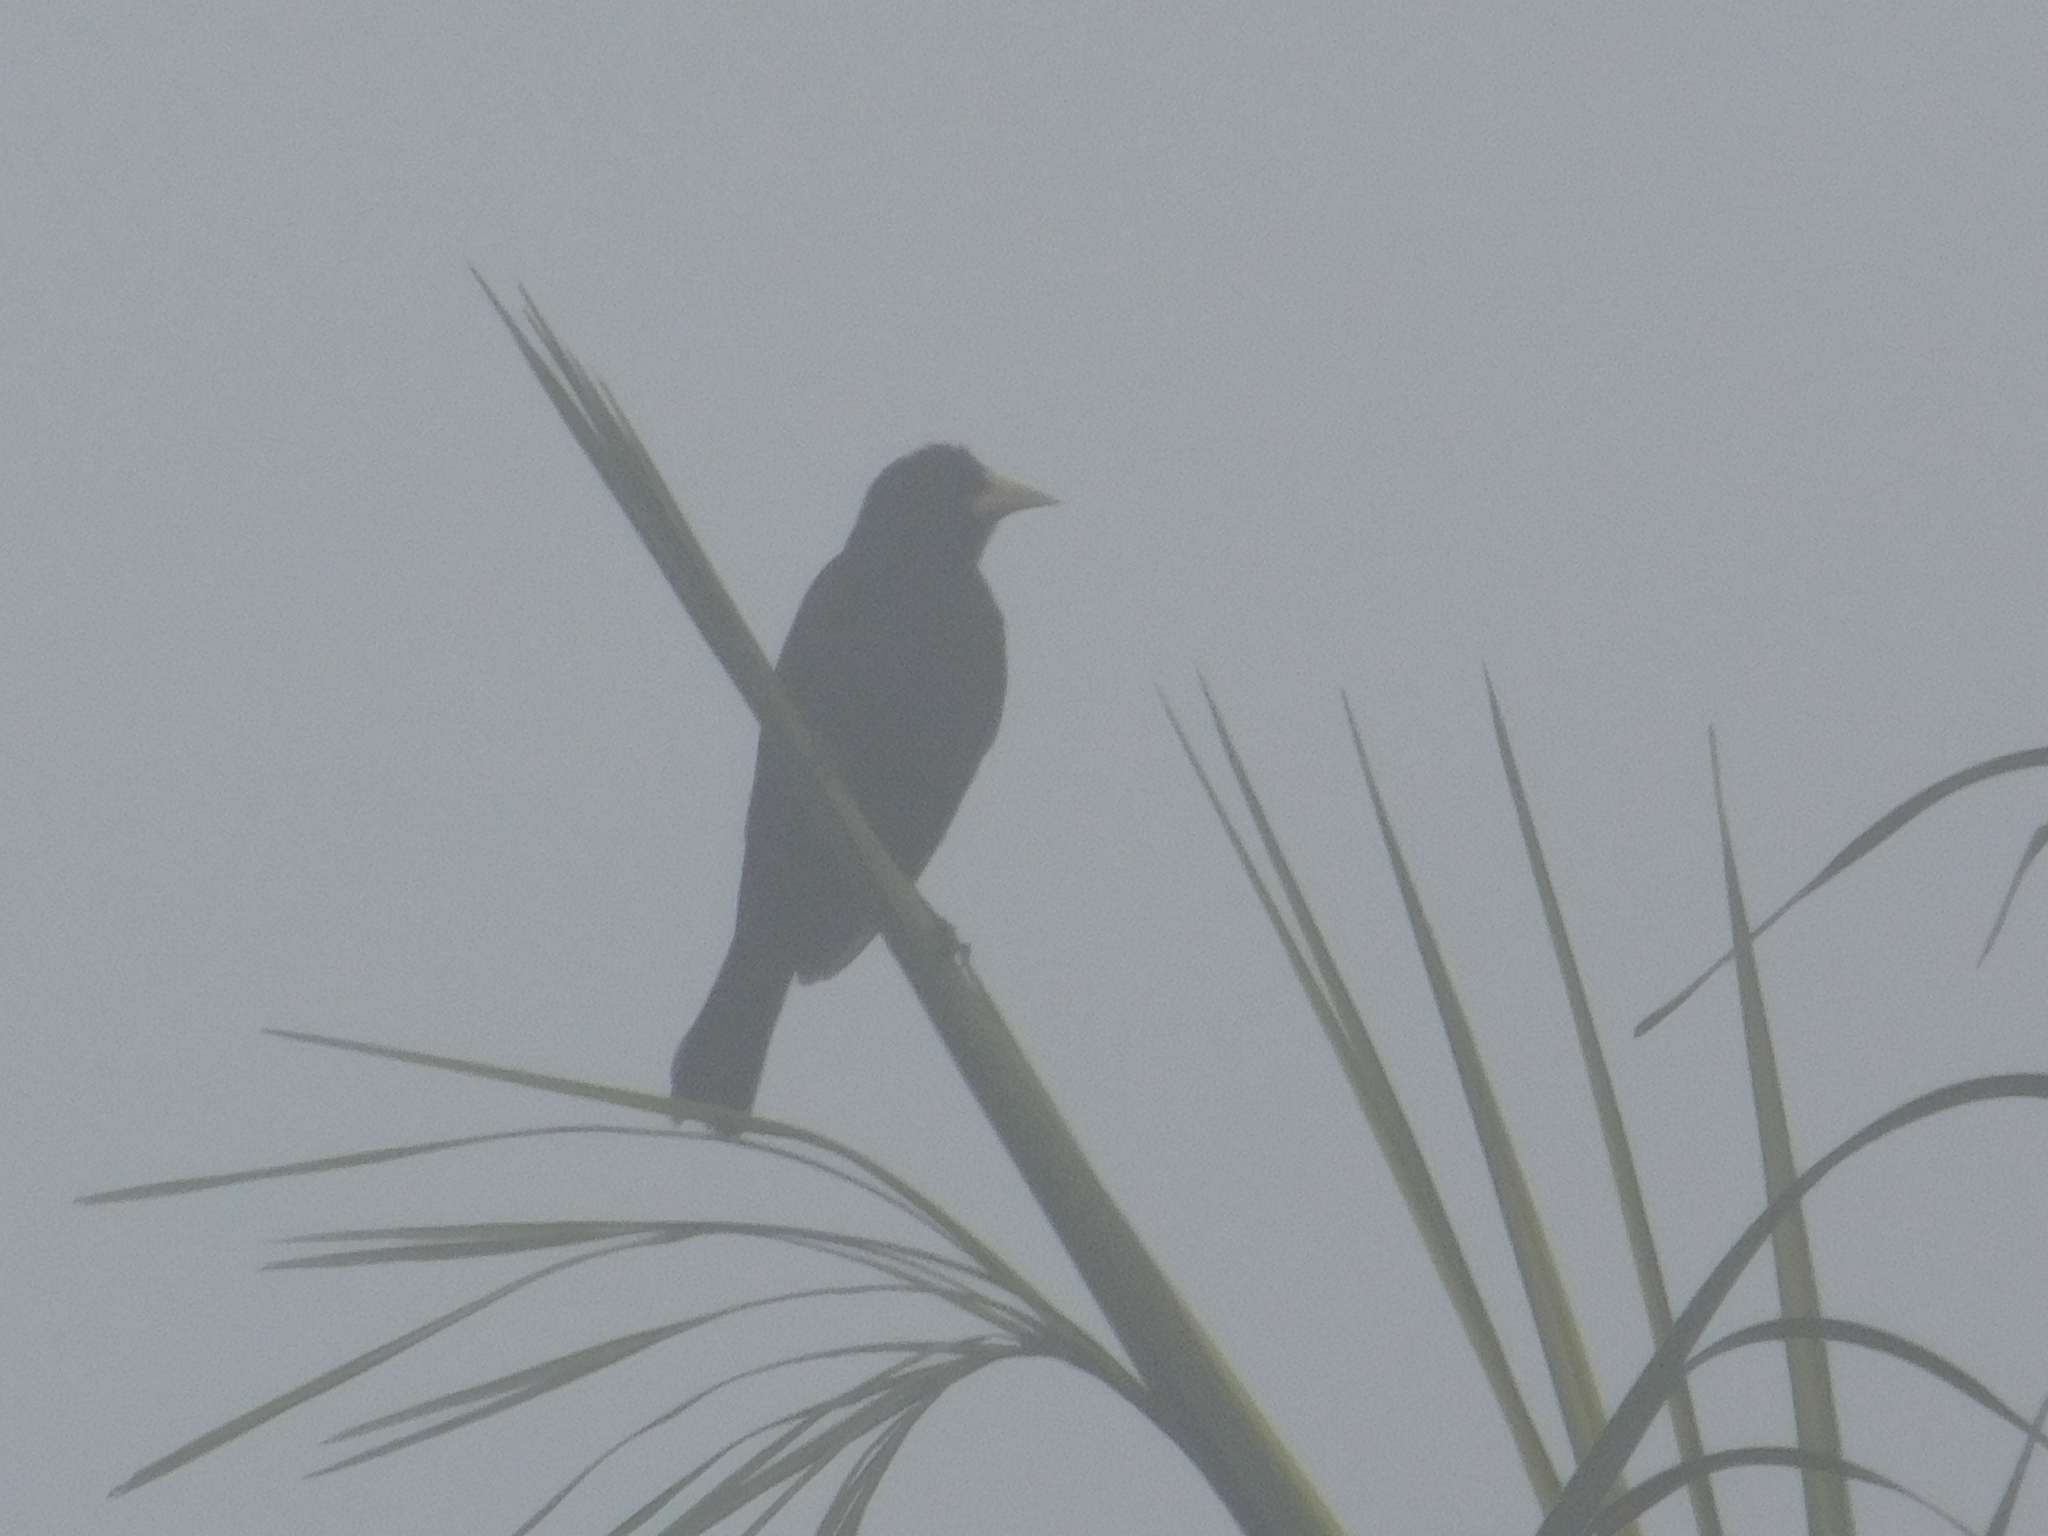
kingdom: Animalia
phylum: Chordata
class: Aves
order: Passeriformes
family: Icteridae
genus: Cacicus
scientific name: Cacicus haemorrhous
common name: Red-rumped cacique
